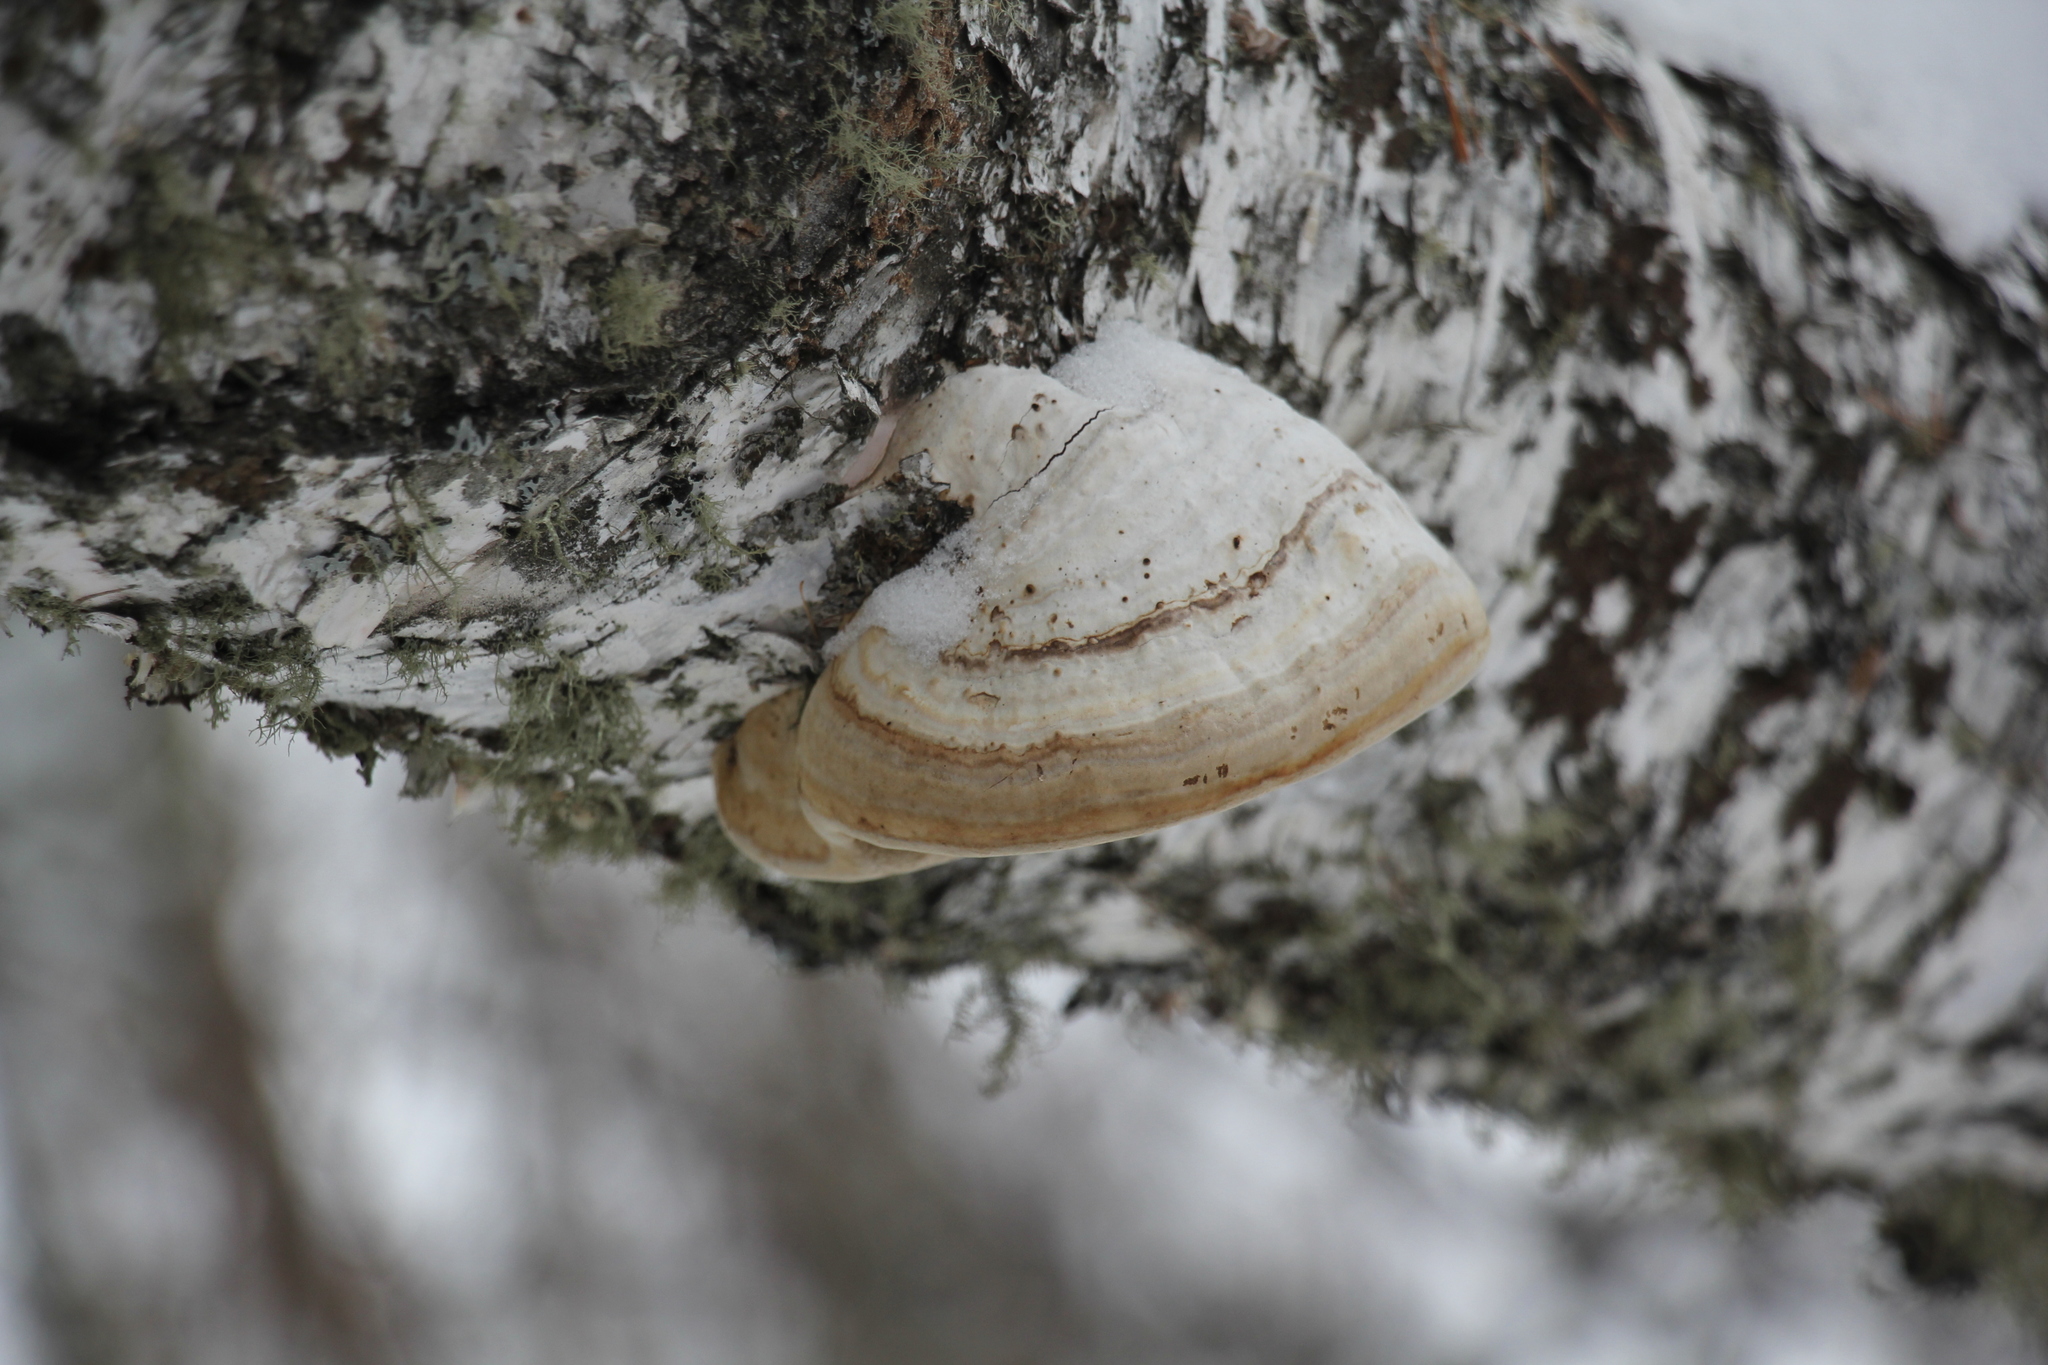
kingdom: Fungi
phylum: Basidiomycota
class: Agaricomycetes
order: Polyporales
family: Polyporaceae
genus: Fomes
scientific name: Fomes fomentarius
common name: Hoof fungus
